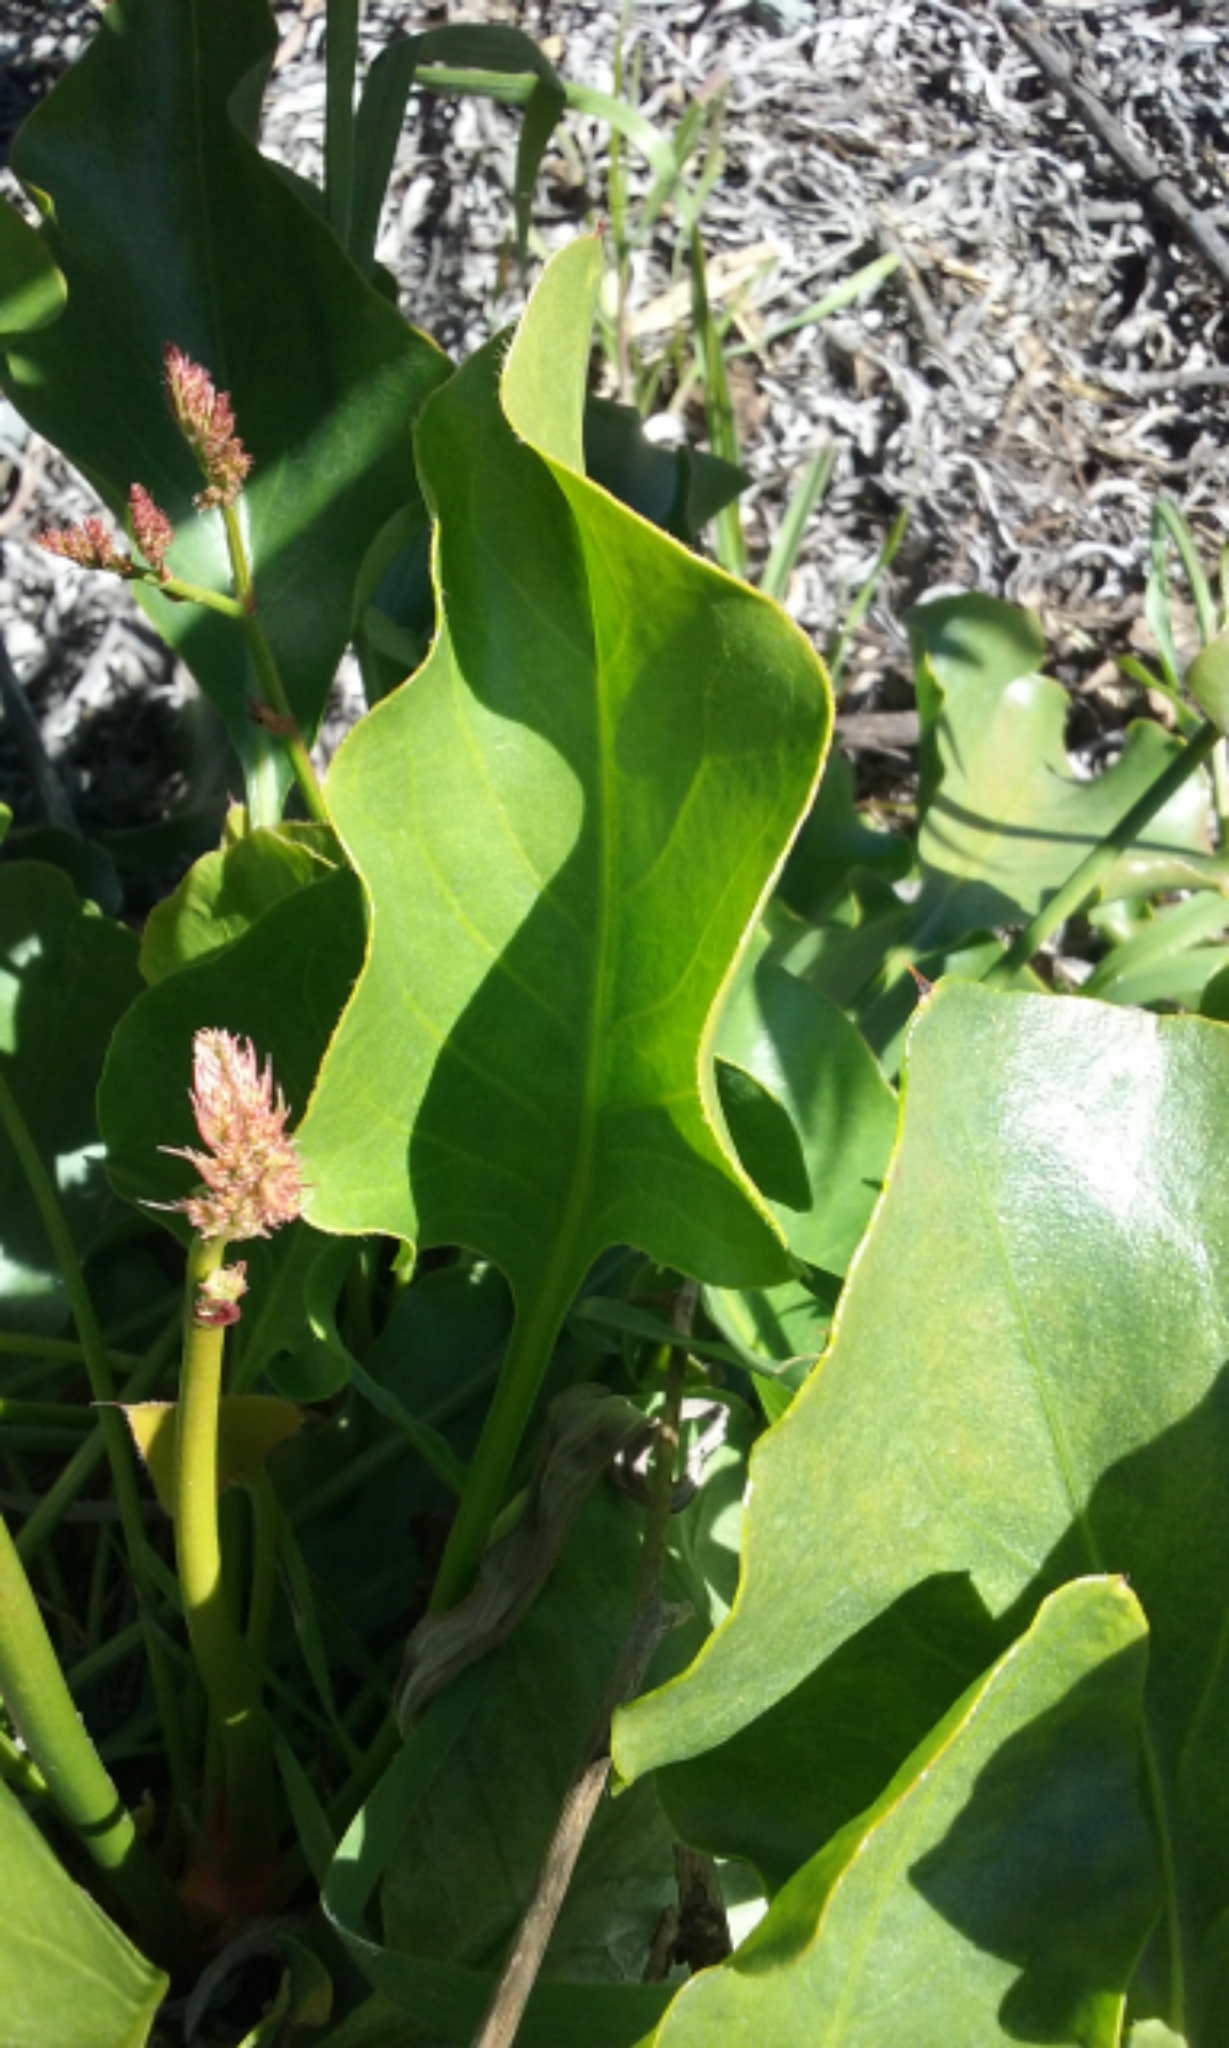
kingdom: Plantae
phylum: Tracheophyta
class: Magnoliopsida
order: Caryophyllales
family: Plumbaginaceae
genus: Limonium
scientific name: Limonium perezii
